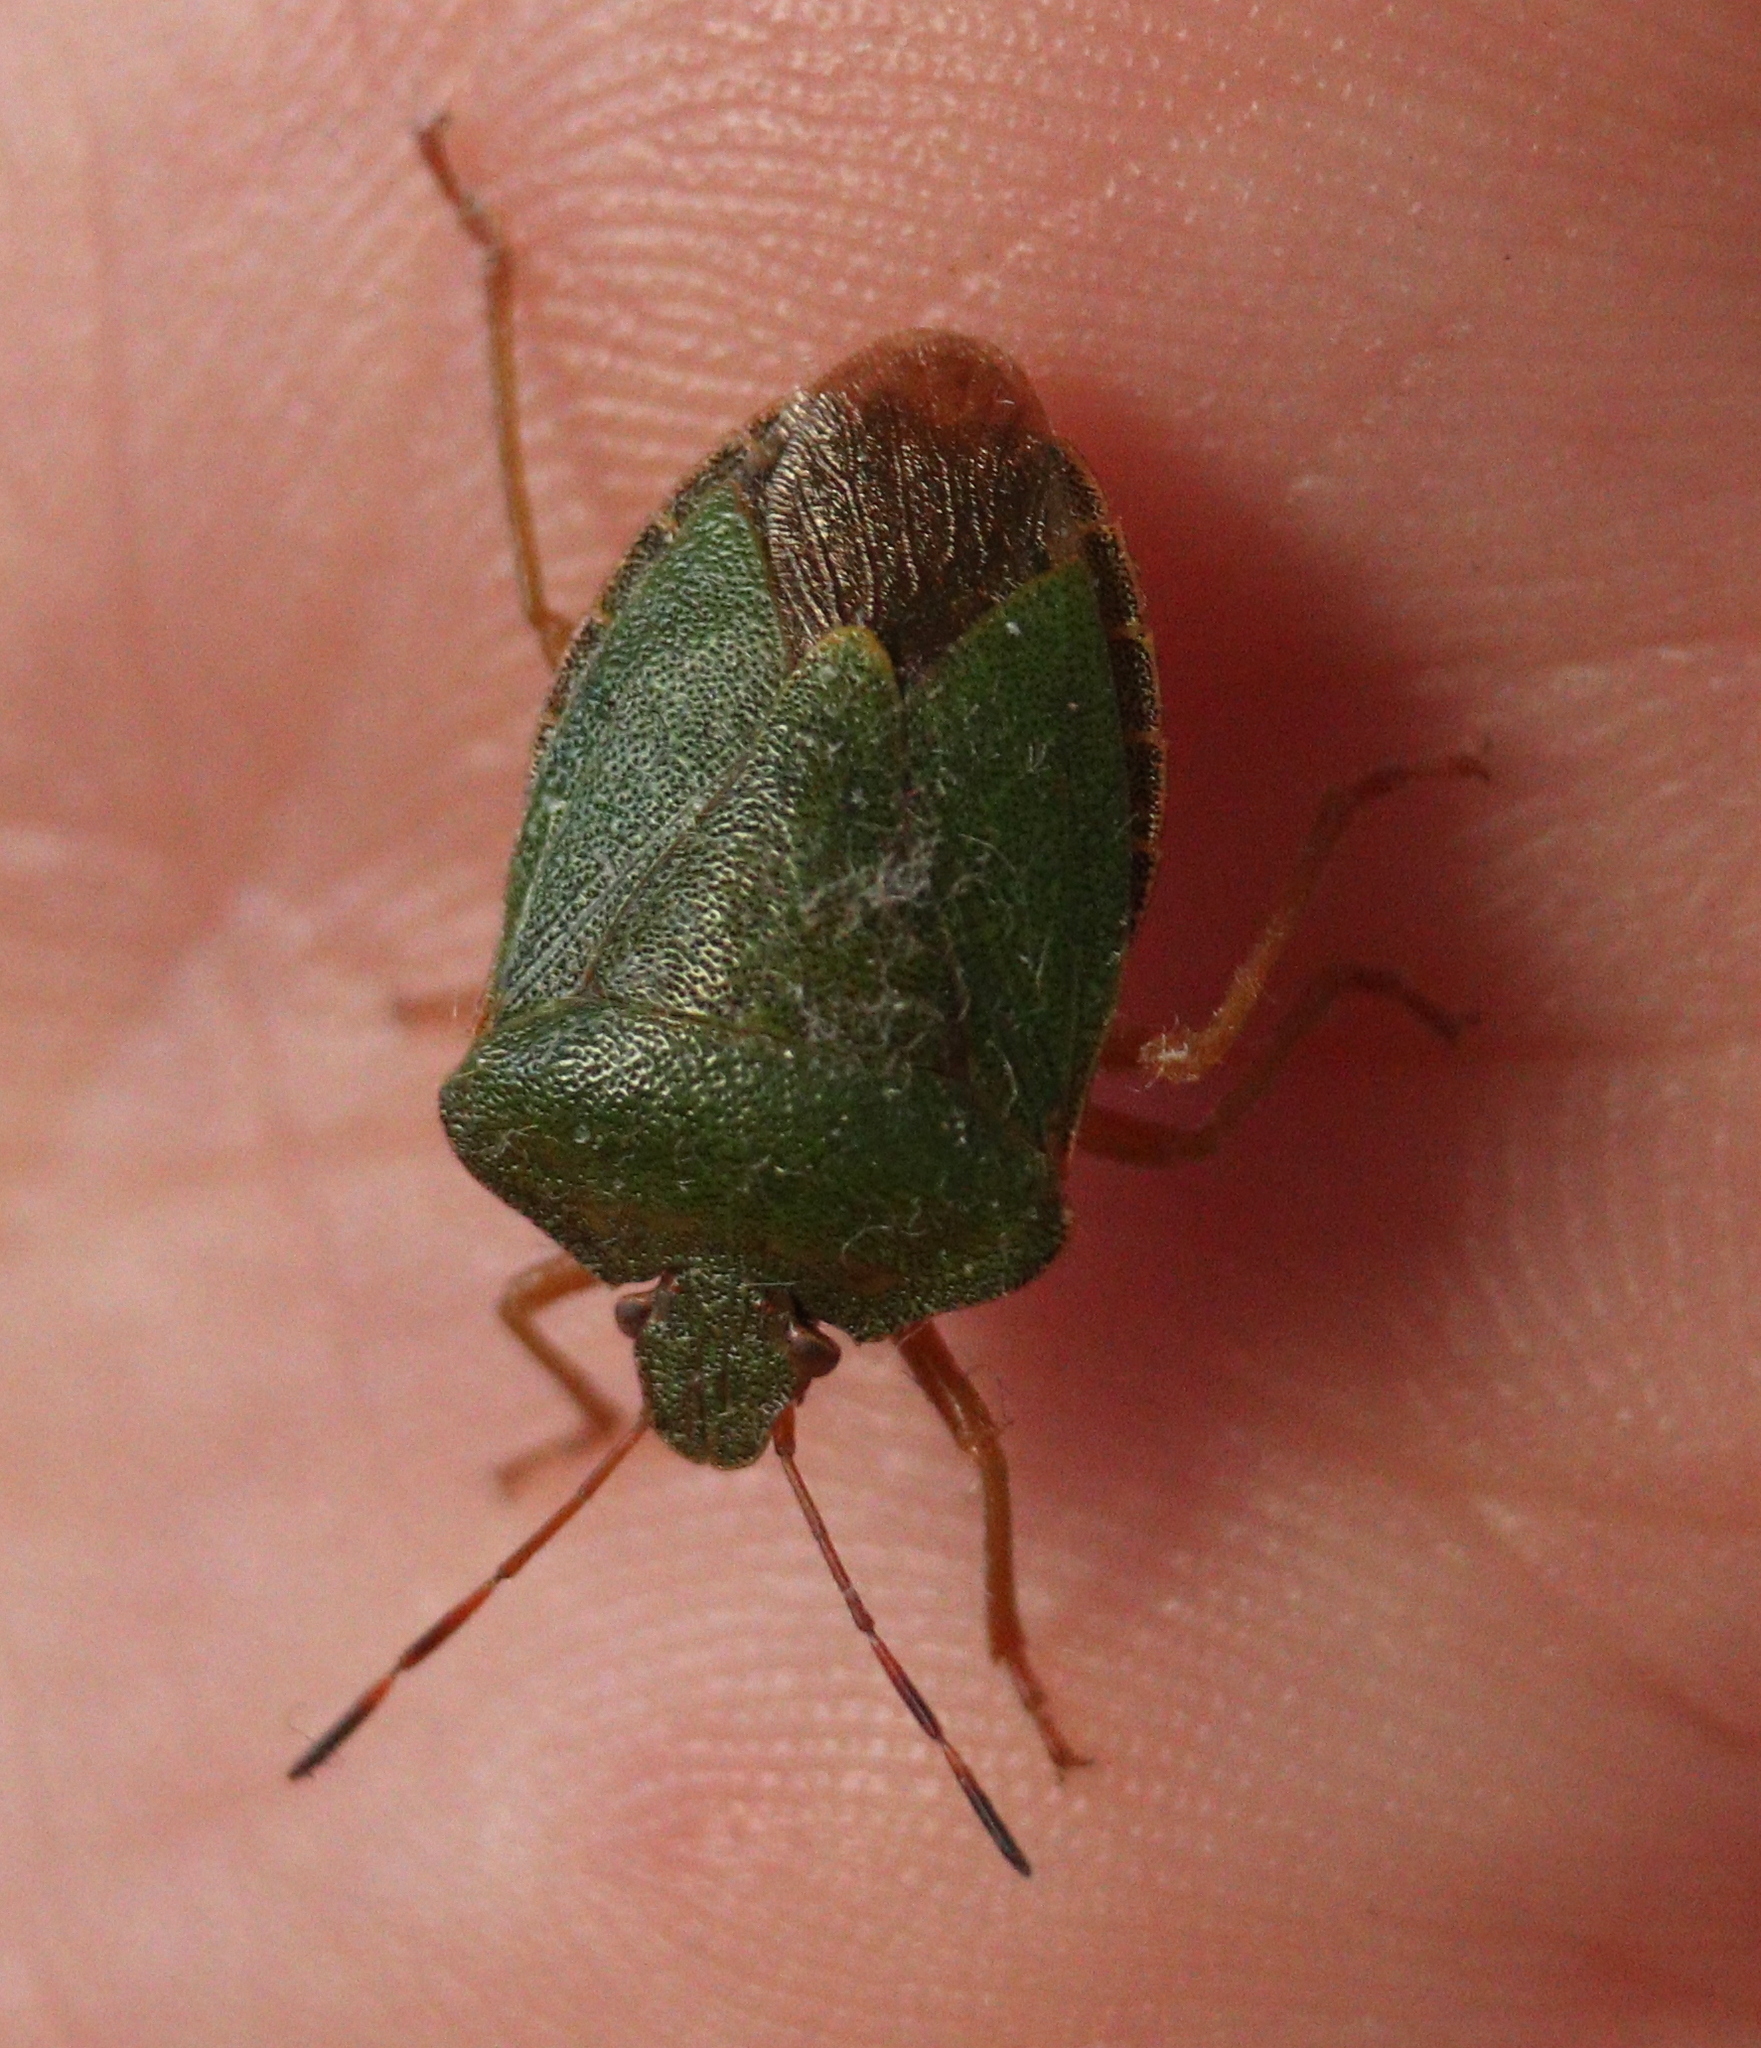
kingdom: Animalia
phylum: Arthropoda
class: Insecta
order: Hemiptera
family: Pentatomidae
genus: Palomena
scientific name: Palomena prasina
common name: Green shieldbug
